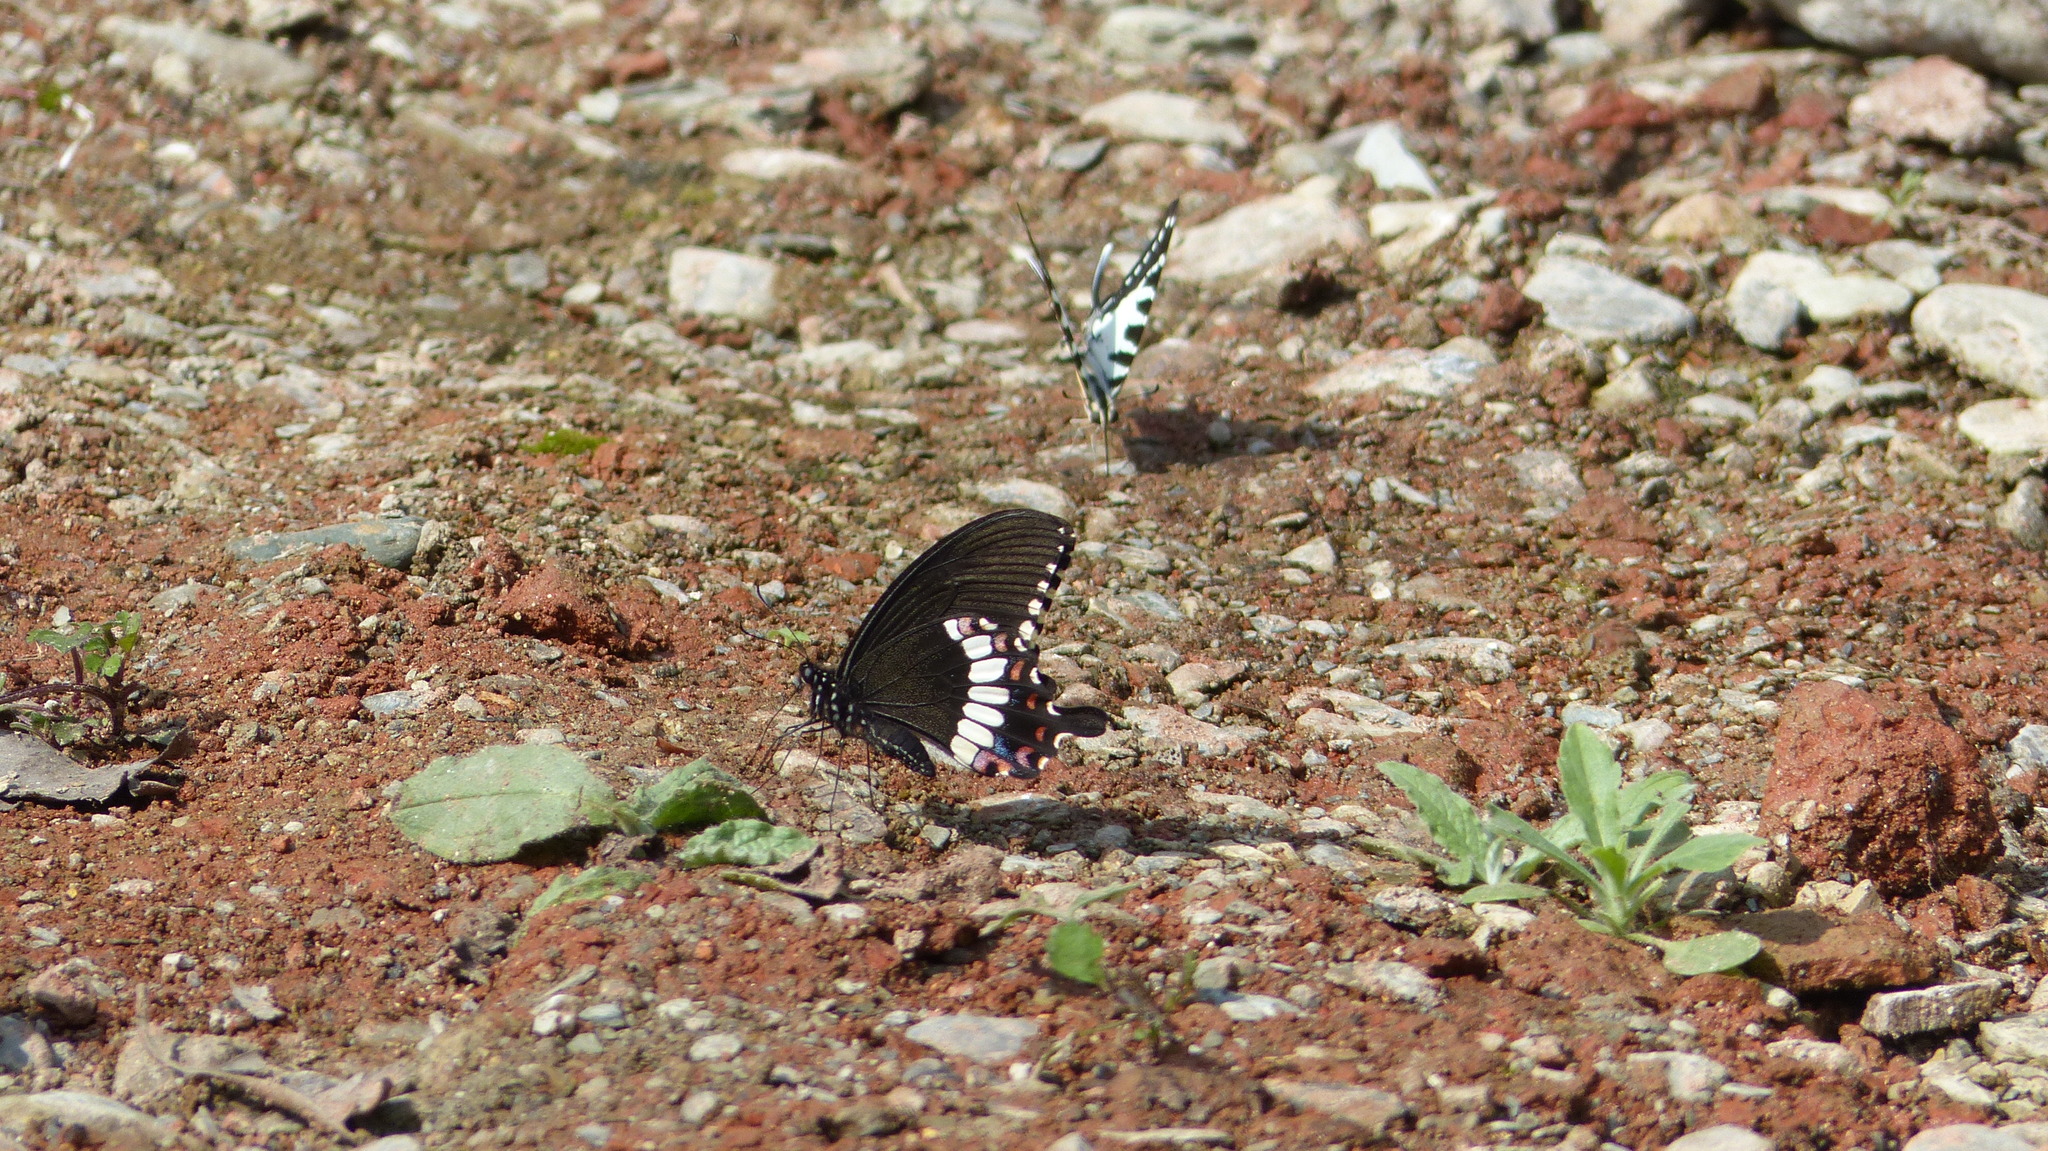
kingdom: Animalia
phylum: Arthropoda
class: Insecta
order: Lepidoptera
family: Papilionidae
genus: Papilio
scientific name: Papilio polytes
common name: Common mormon
